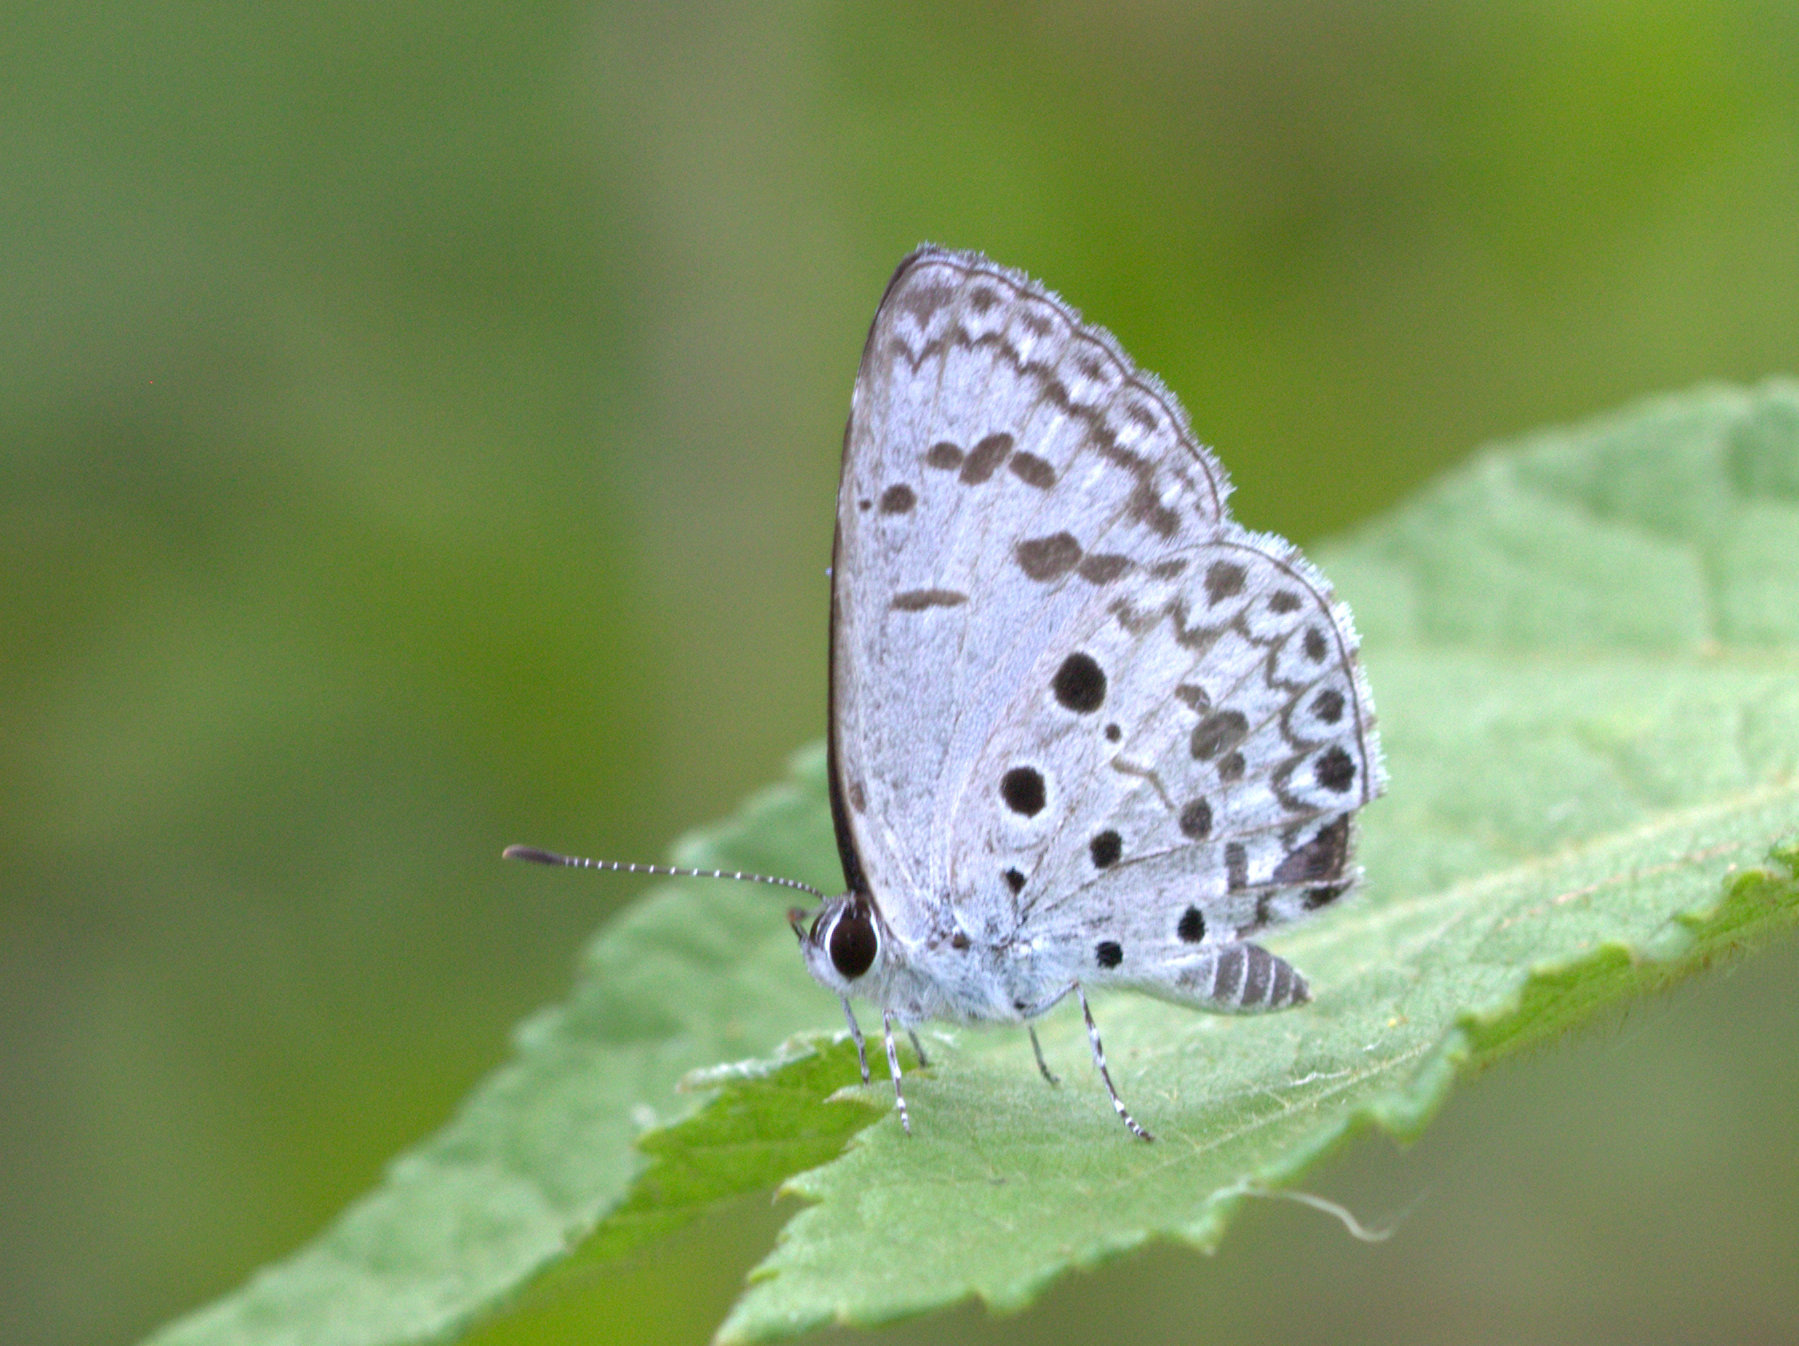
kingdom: Animalia
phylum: Arthropoda
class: Insecta
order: Lepidoptera
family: Lycaenidae
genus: Acytolepis
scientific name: Acytolepis puspa
